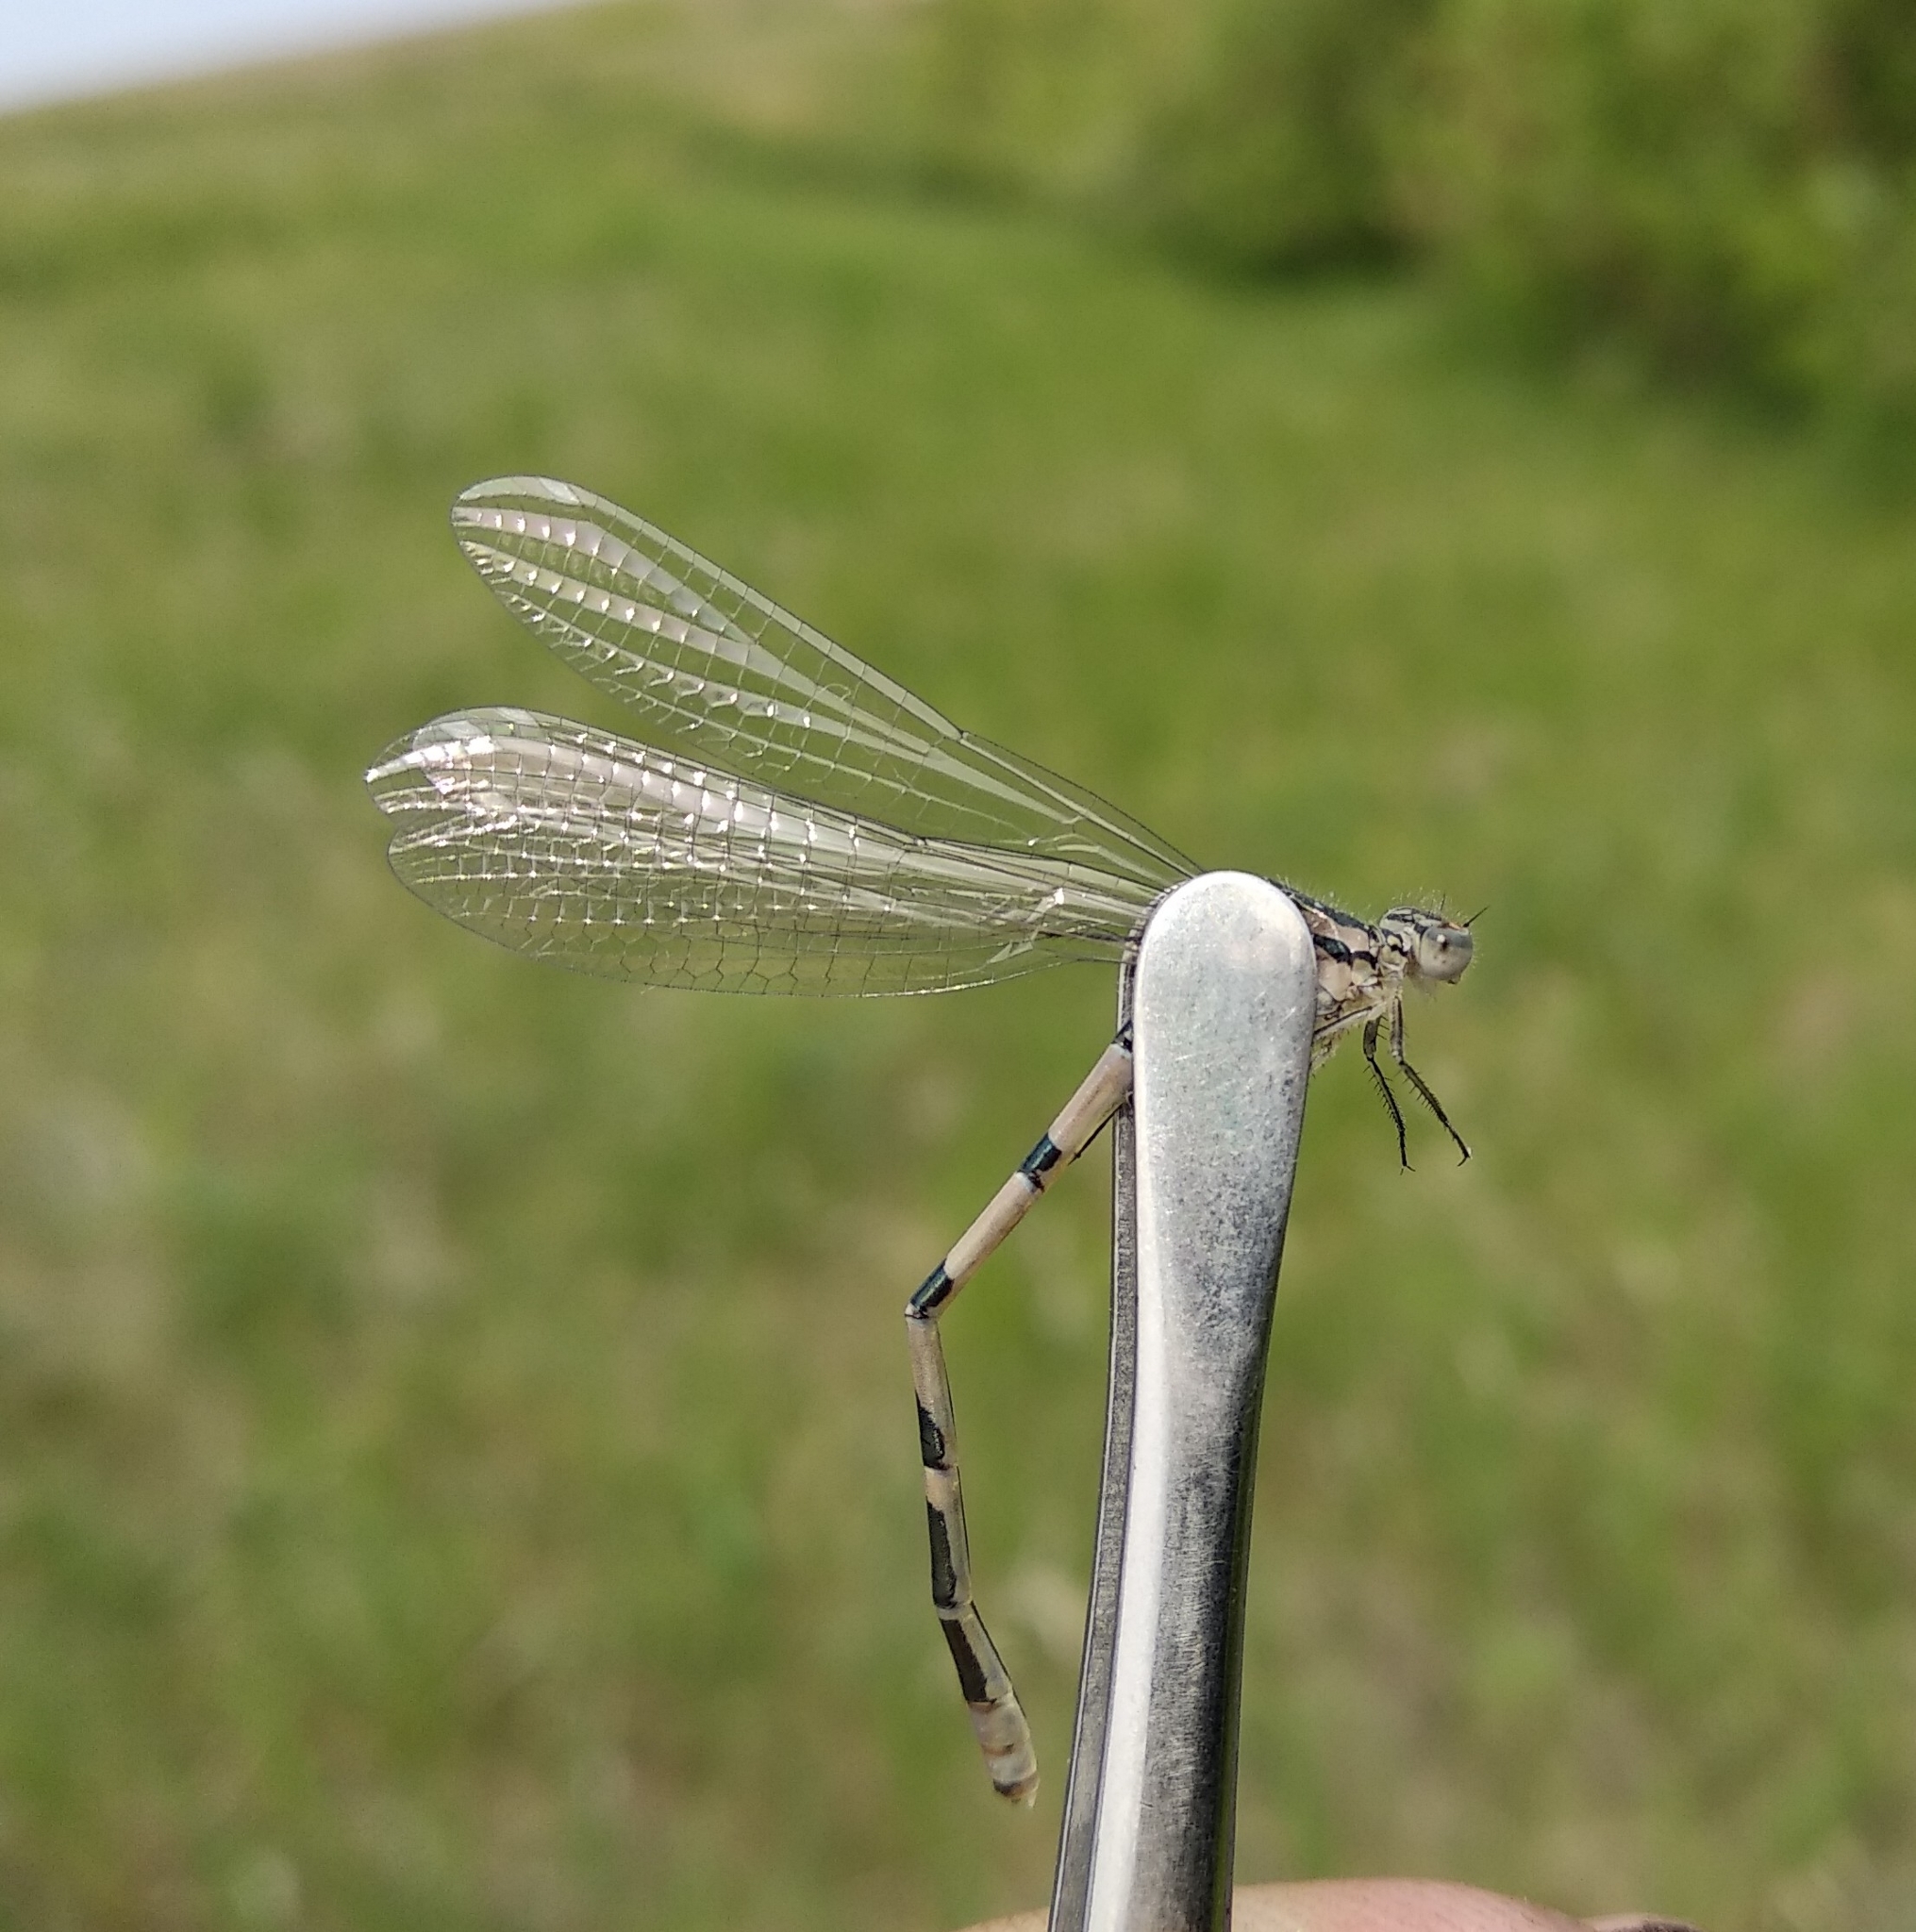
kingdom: Animalia
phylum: Arthropoda
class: Insecta
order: Odonata
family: Coenagrionidae
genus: Enallagma
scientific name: Enallagma cyathigerum
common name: Common blue damselfly
